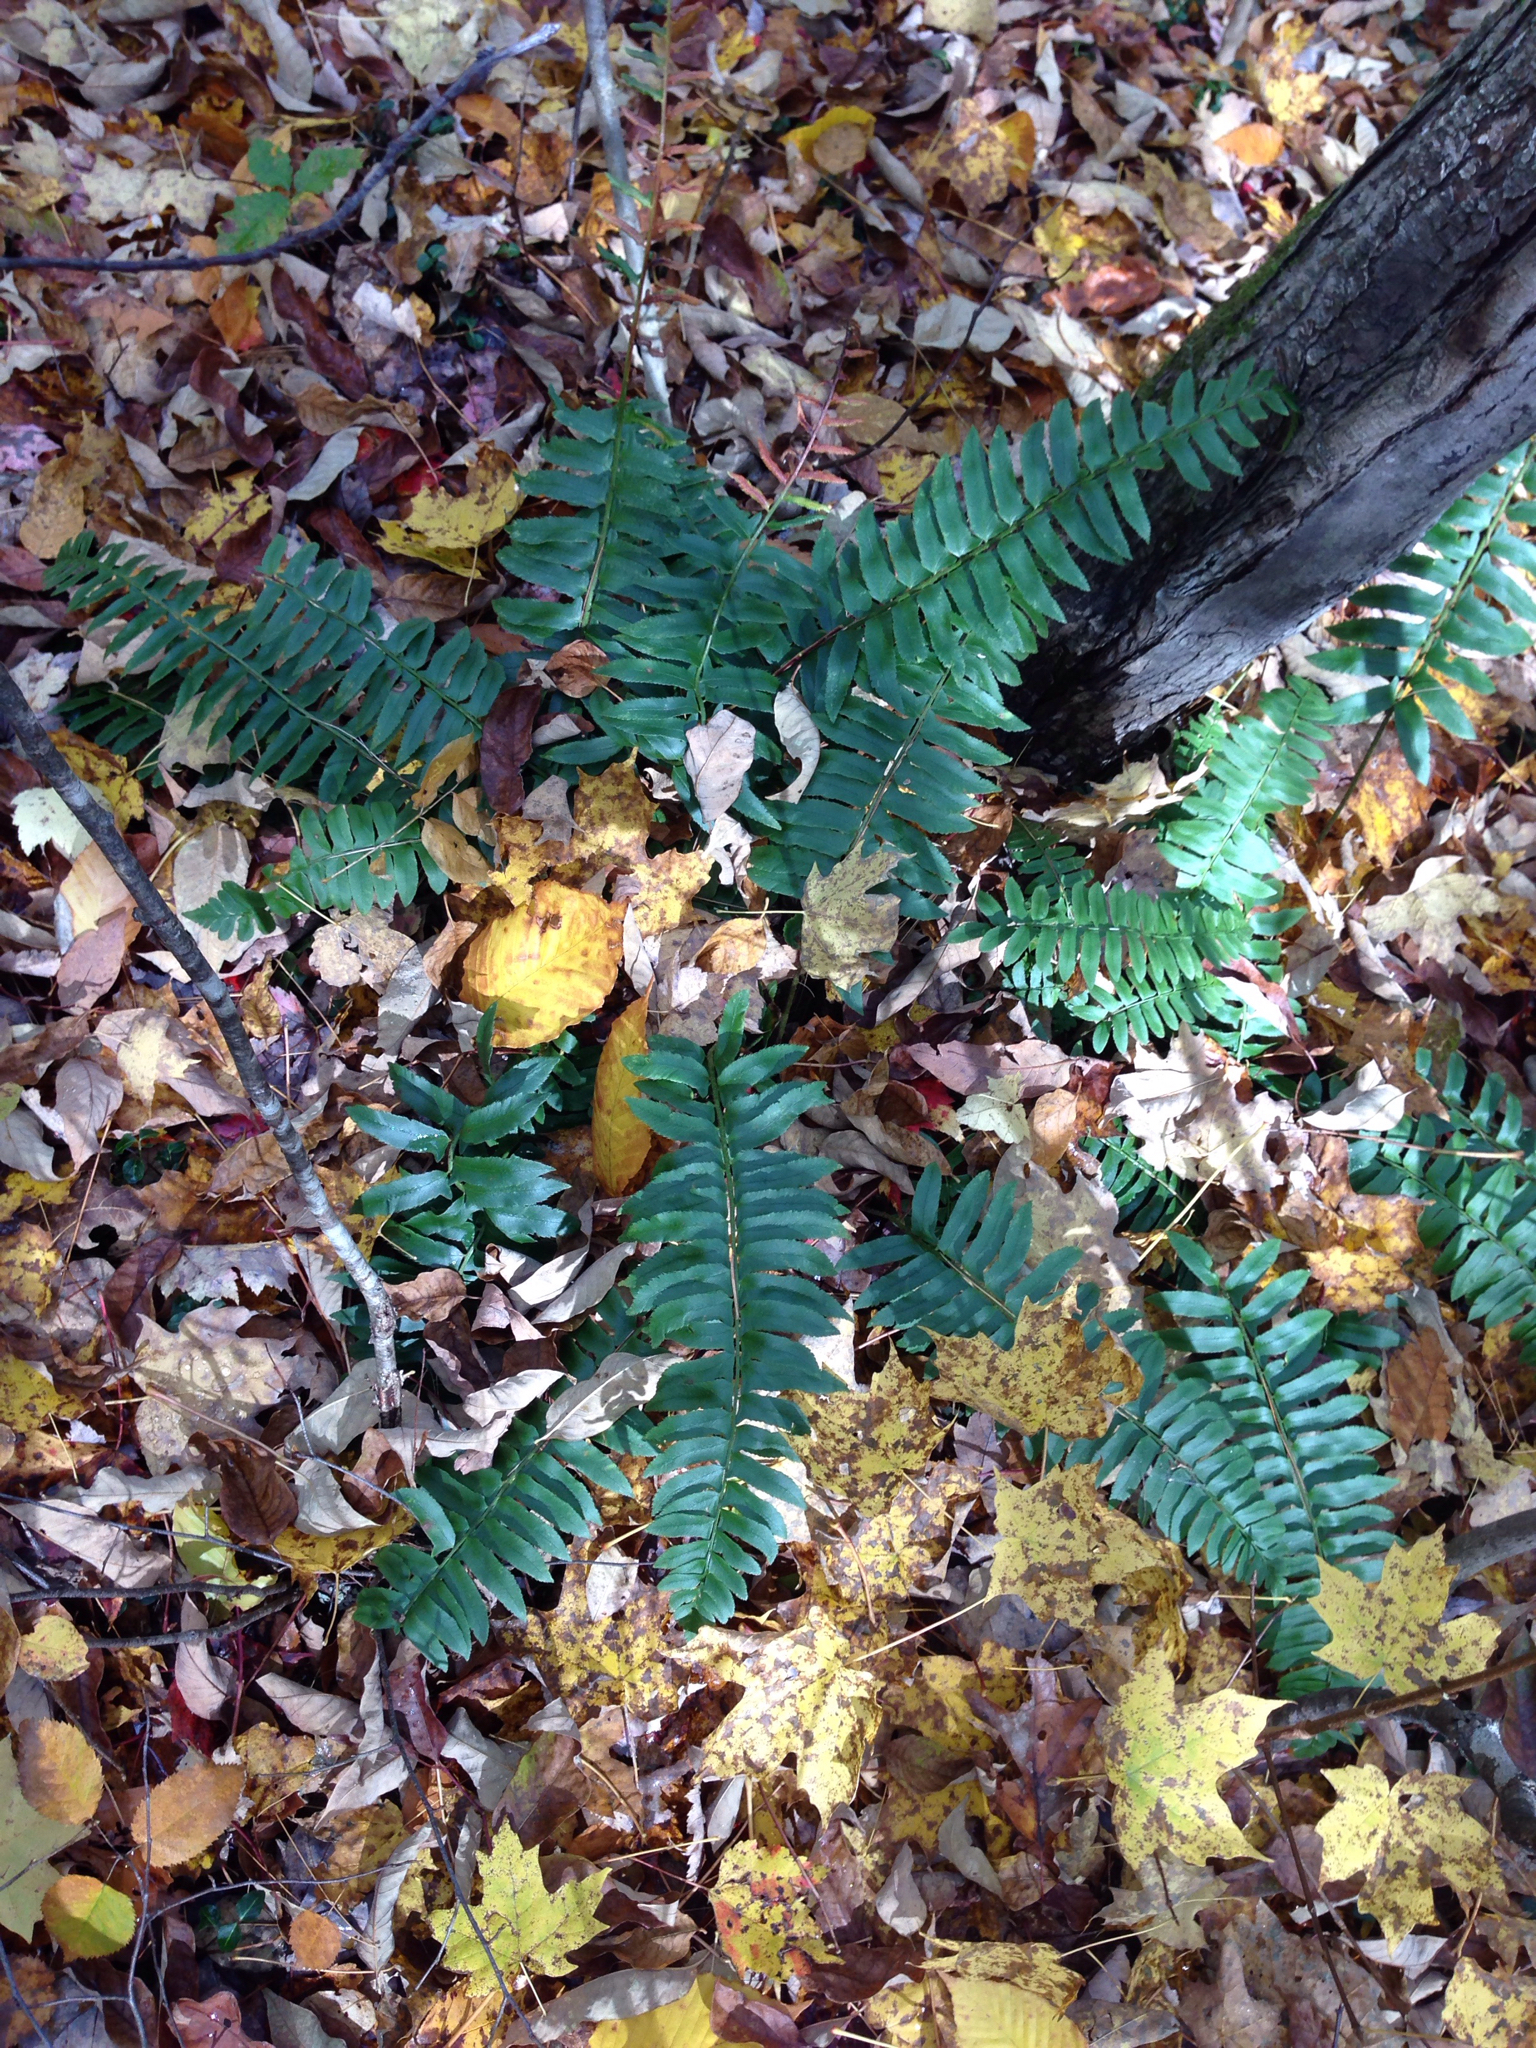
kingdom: Plantae
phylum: Tracheophyta
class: Polypodiopsida
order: Polypodiales
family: Dryopteridaceae
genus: Polystichum
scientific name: Polystichum acrostichoides
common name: Christmas fern
